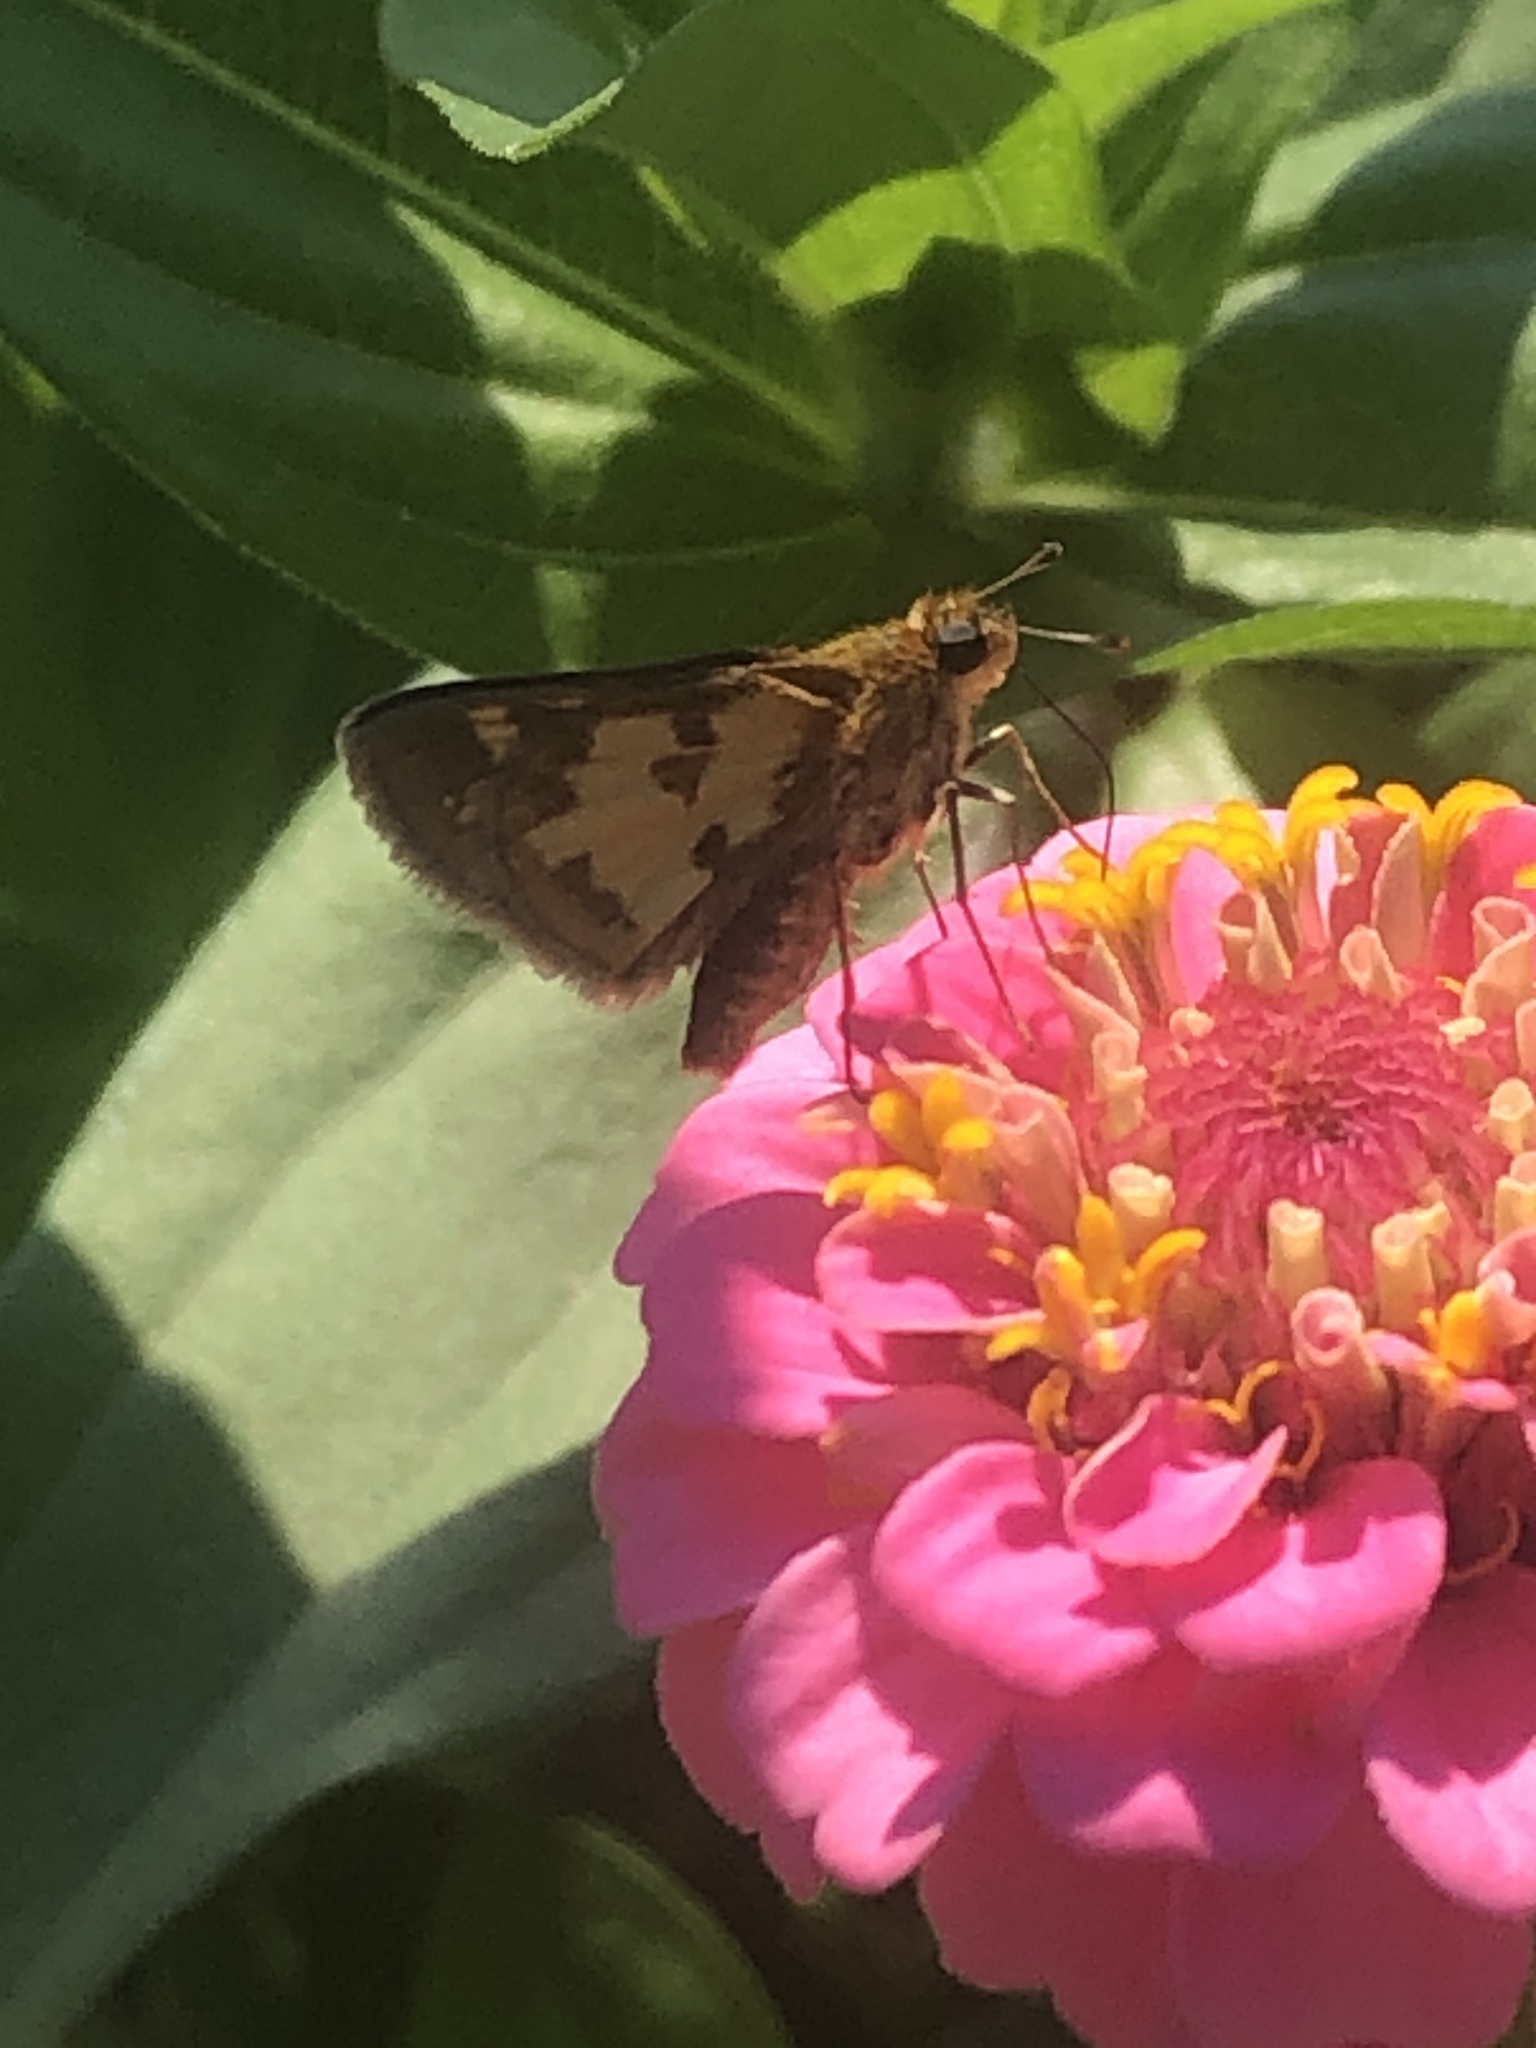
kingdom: Animalia
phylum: Arthropoda
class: Insecta
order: Lepidoptera
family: Hesperiidae
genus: Polites
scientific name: Polites coras
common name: Peck's skipper
